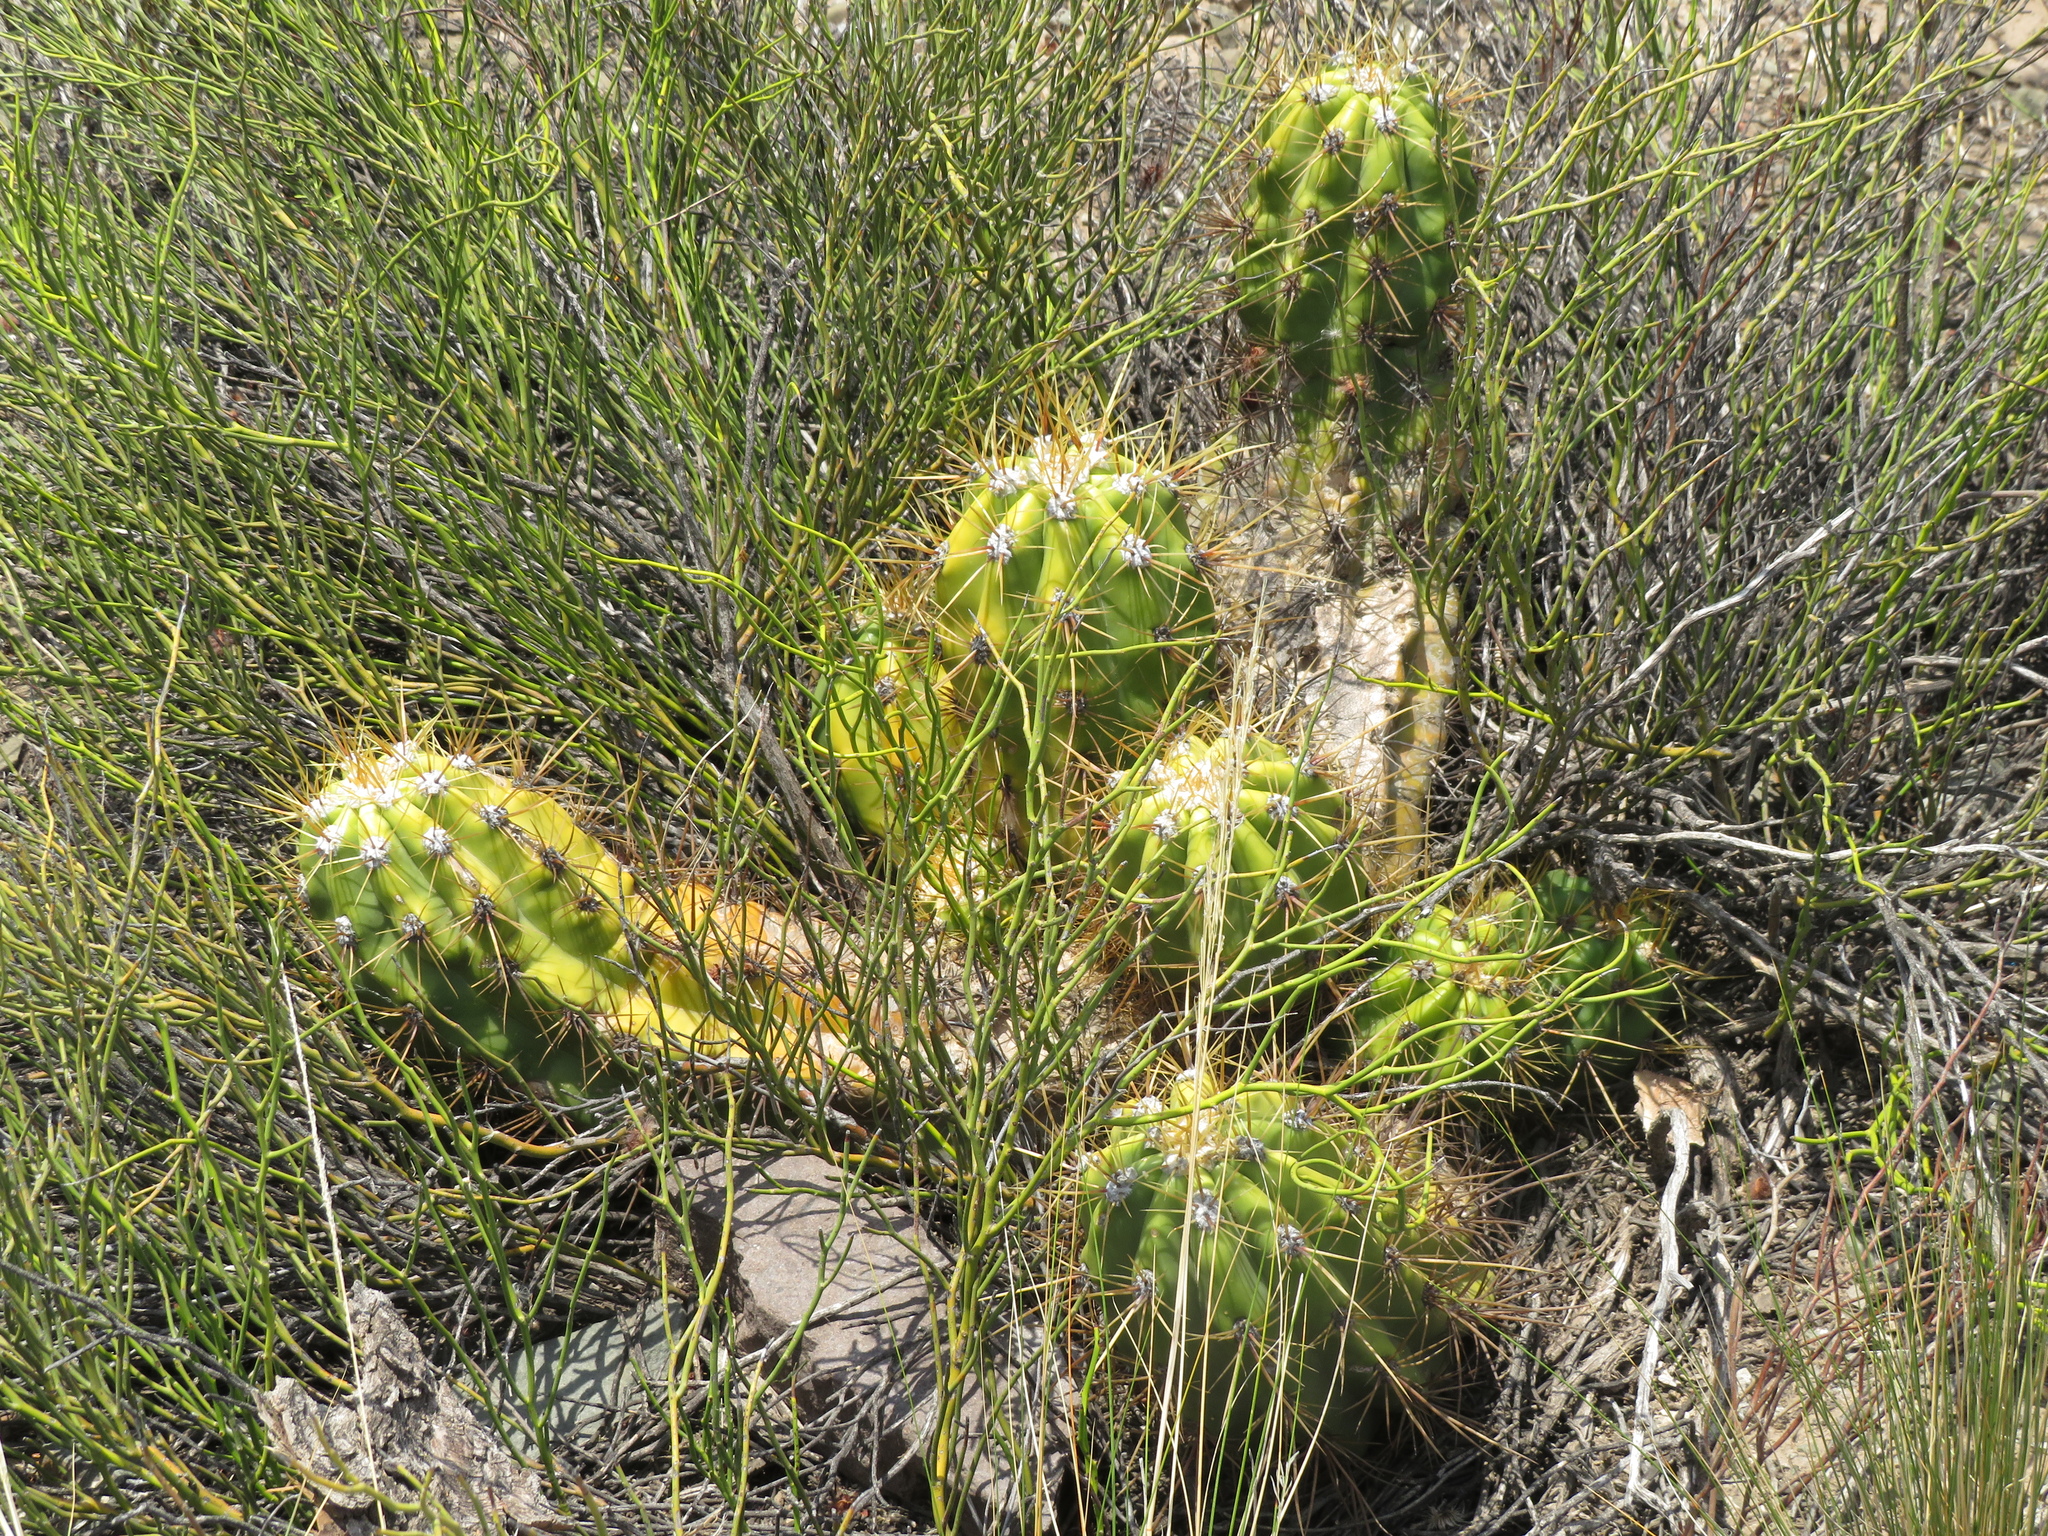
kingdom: Plantae
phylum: Tracheophyta
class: Magnoliopsida
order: Caryophyllales
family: Cactaceae
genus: Soehrensia
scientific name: Soehrensia candicans
